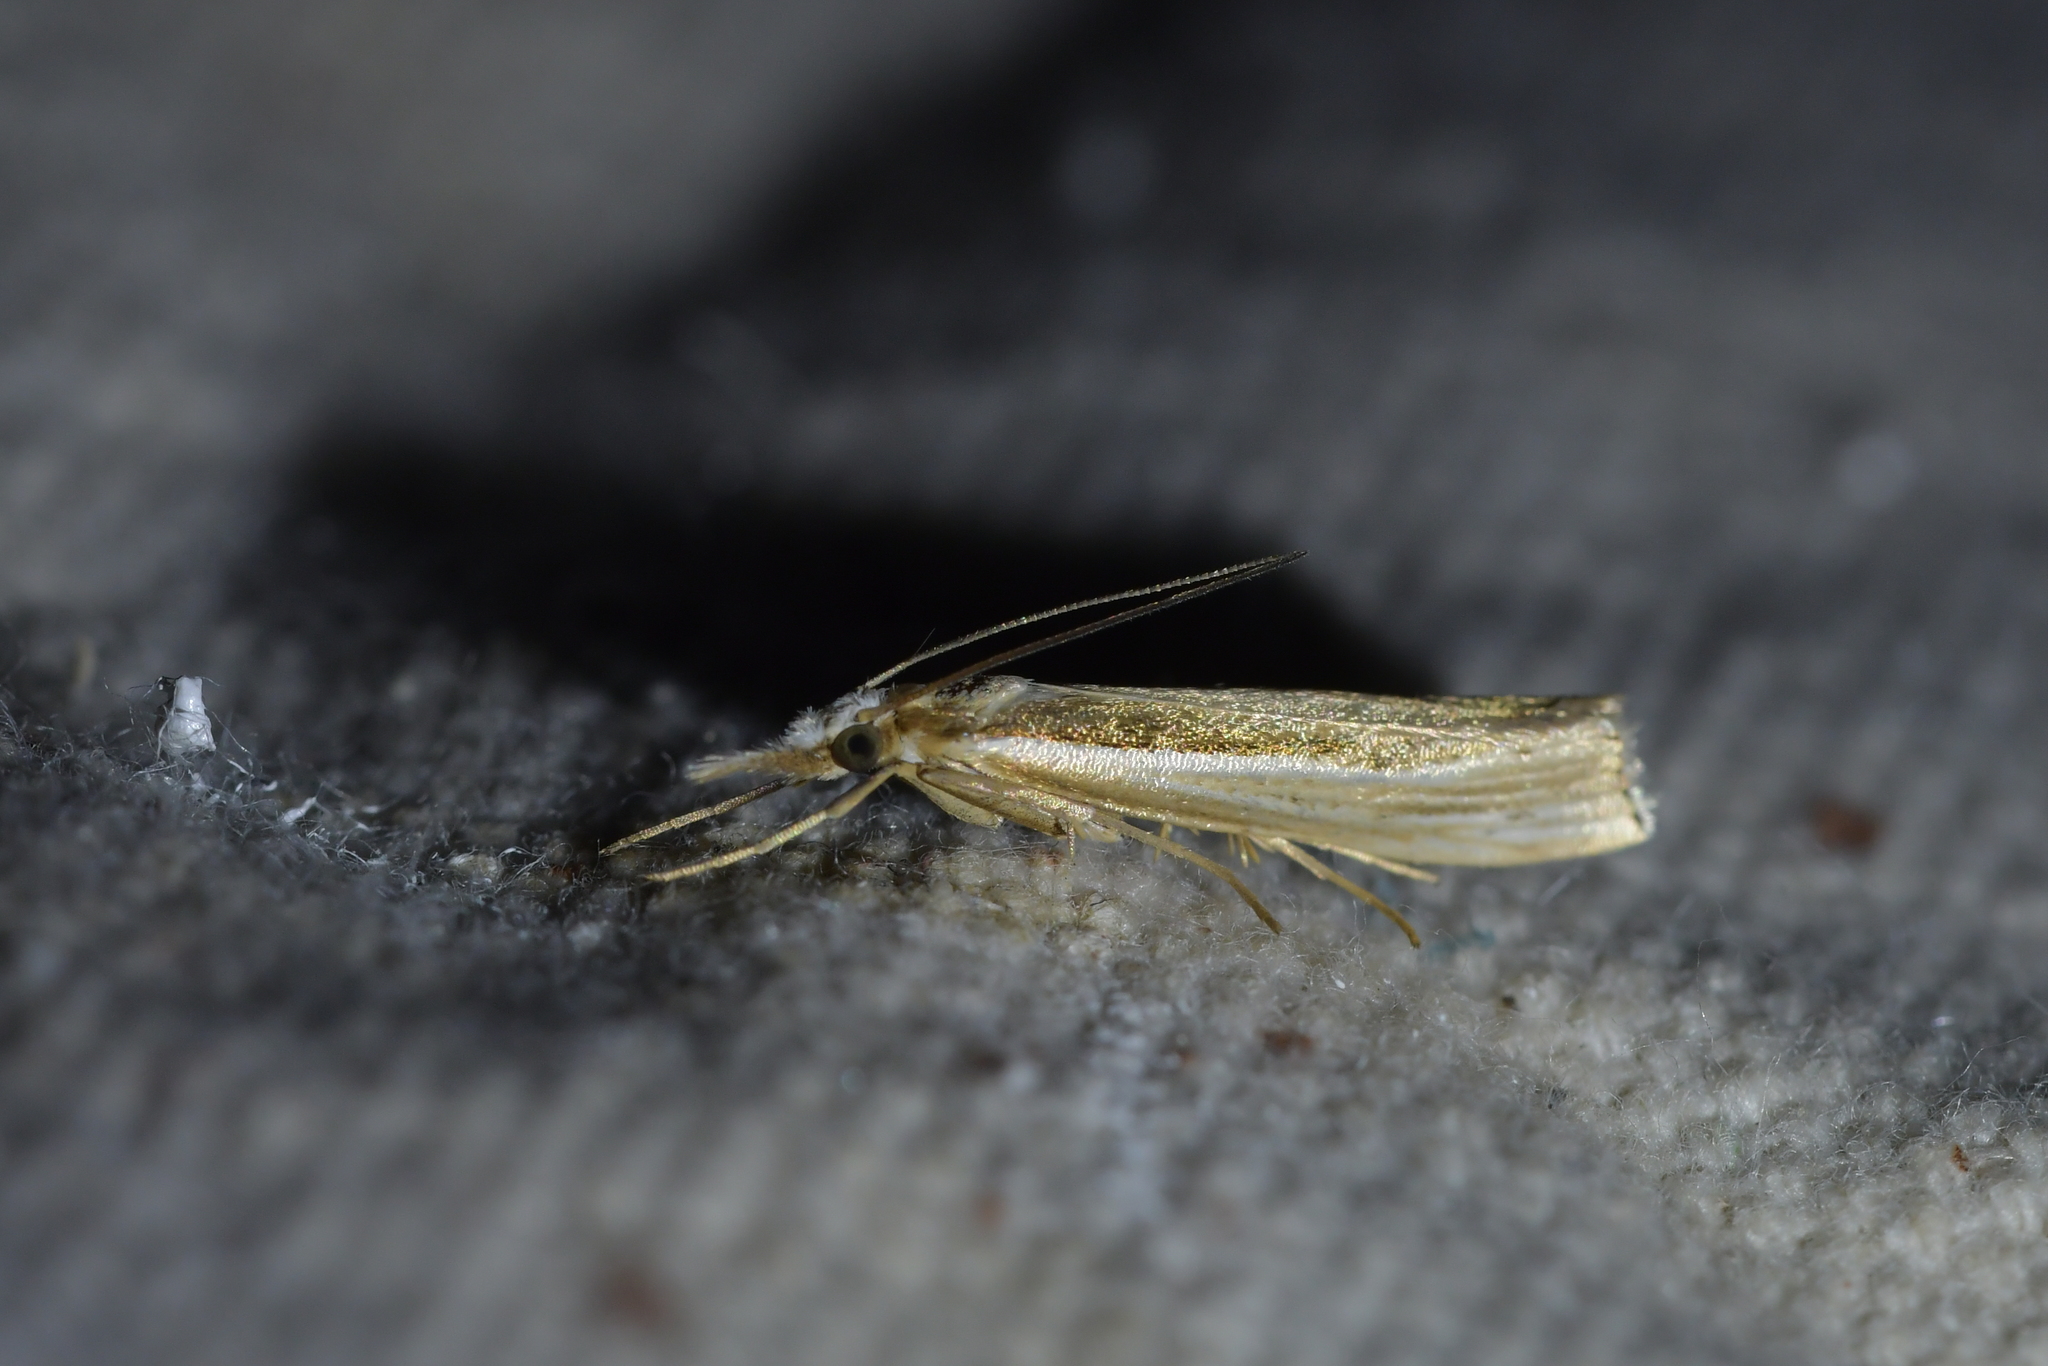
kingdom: Animalia
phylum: Arthropoda
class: Insecta
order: Lepidoptera
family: Crambidae
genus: Orocrambus
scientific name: Orocrambus ramosellus
